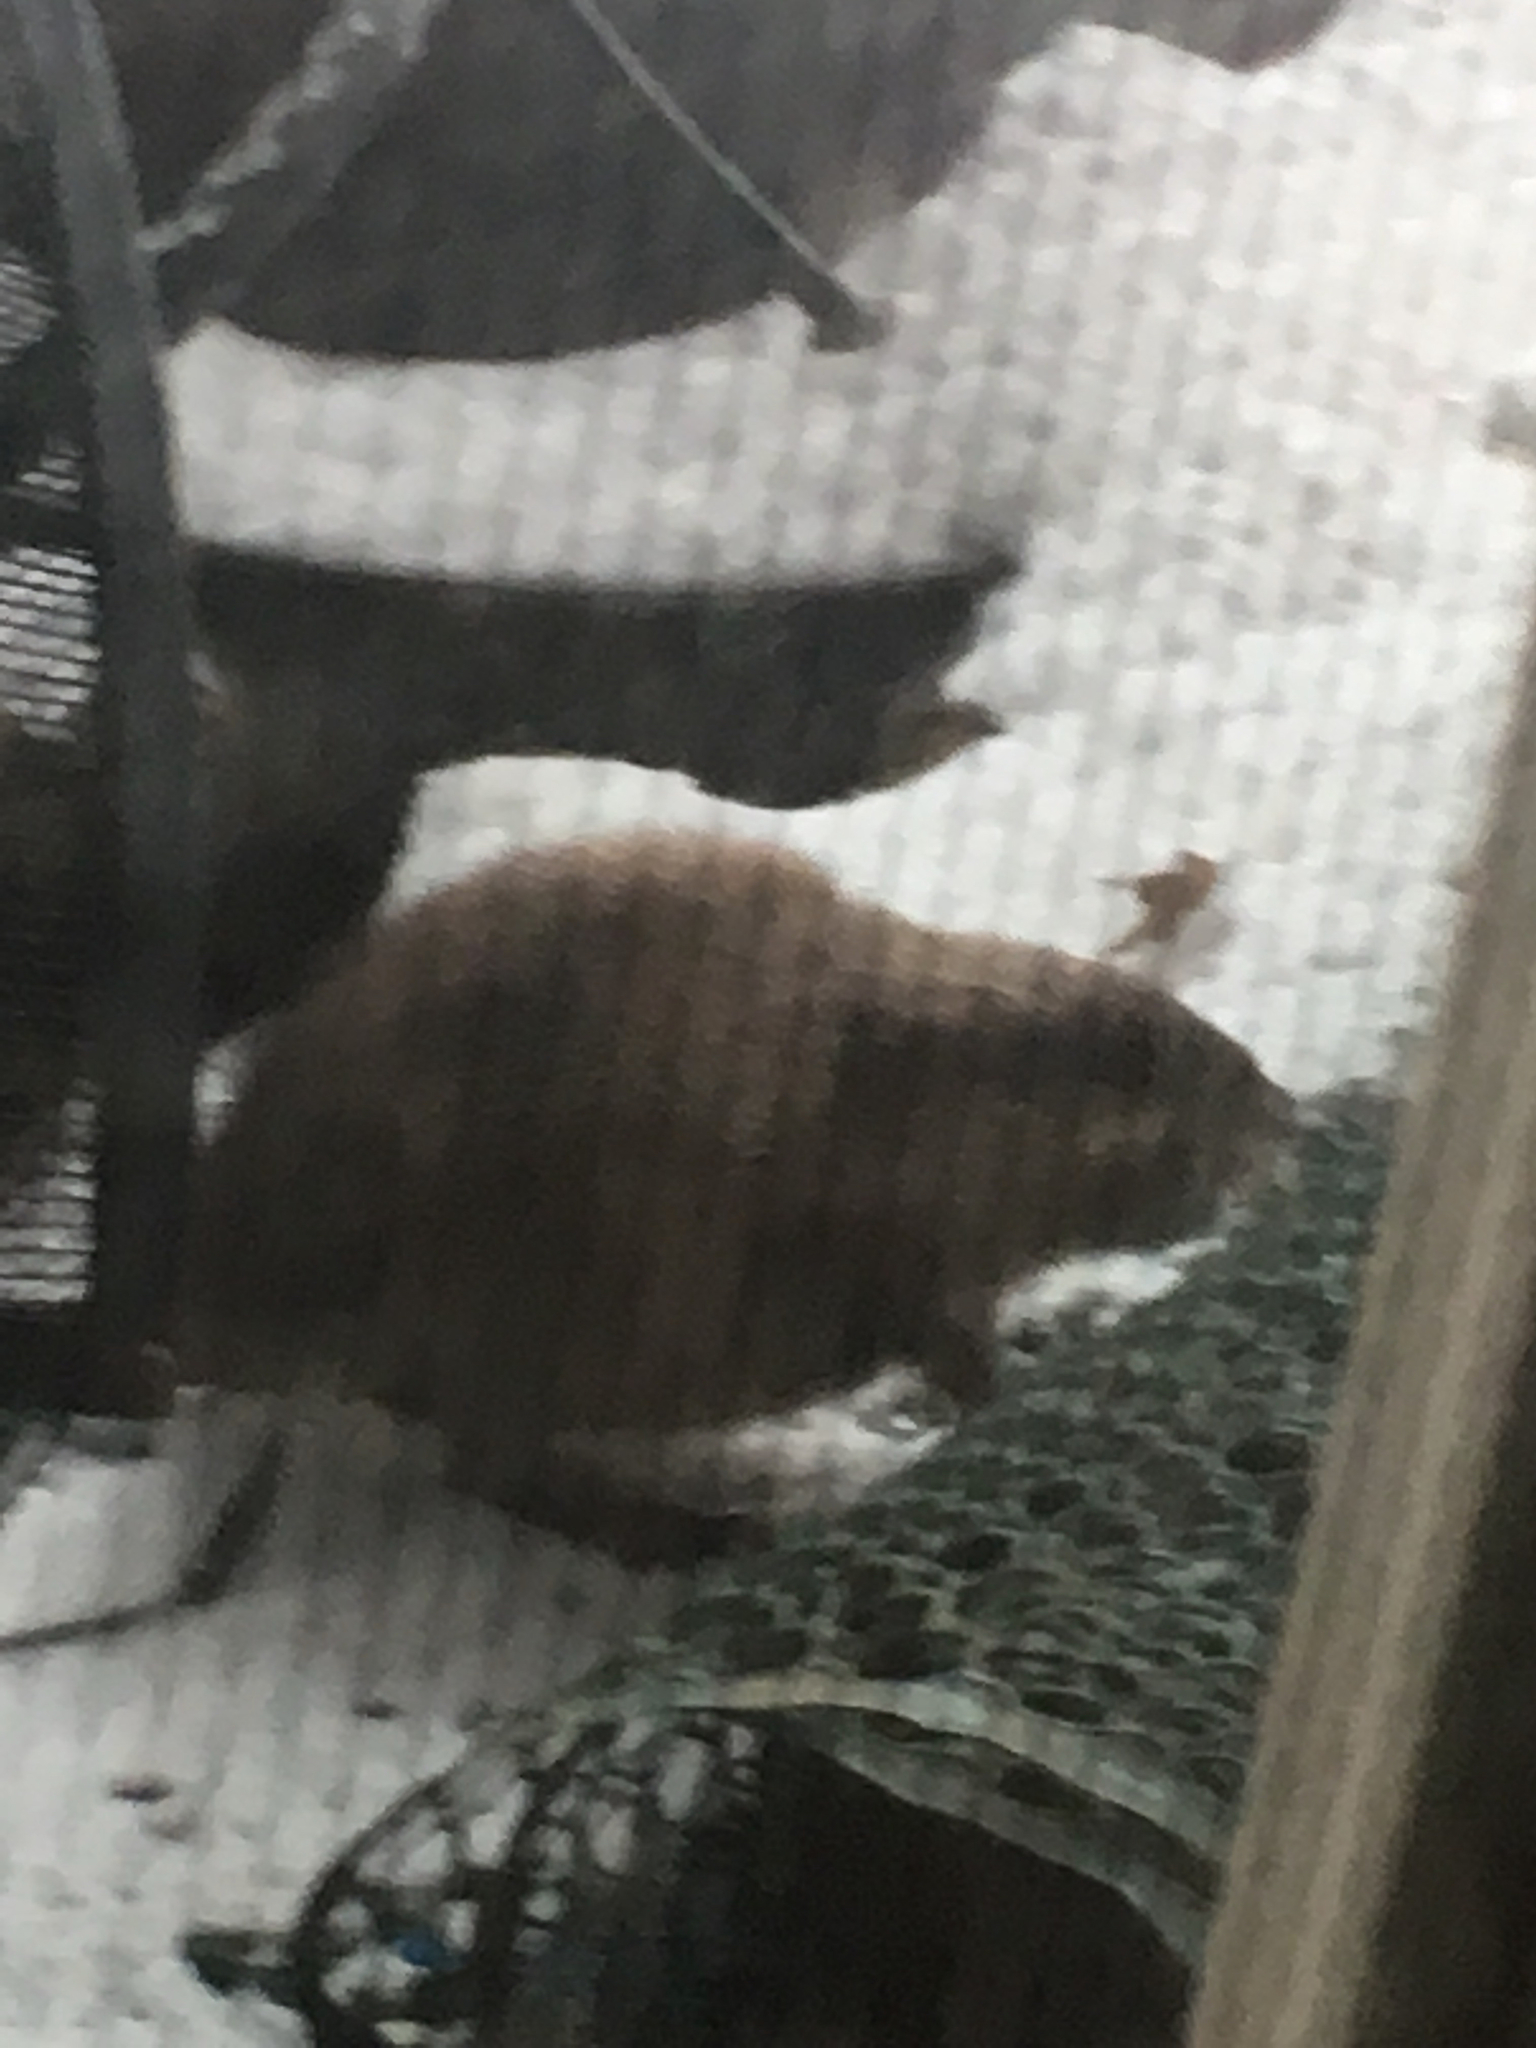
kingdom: Animalia
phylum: Chordata
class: Mammalia
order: Rodentia
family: Cricetidae
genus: Ondatra
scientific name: Ondatra zibethicus
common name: Muskrat
